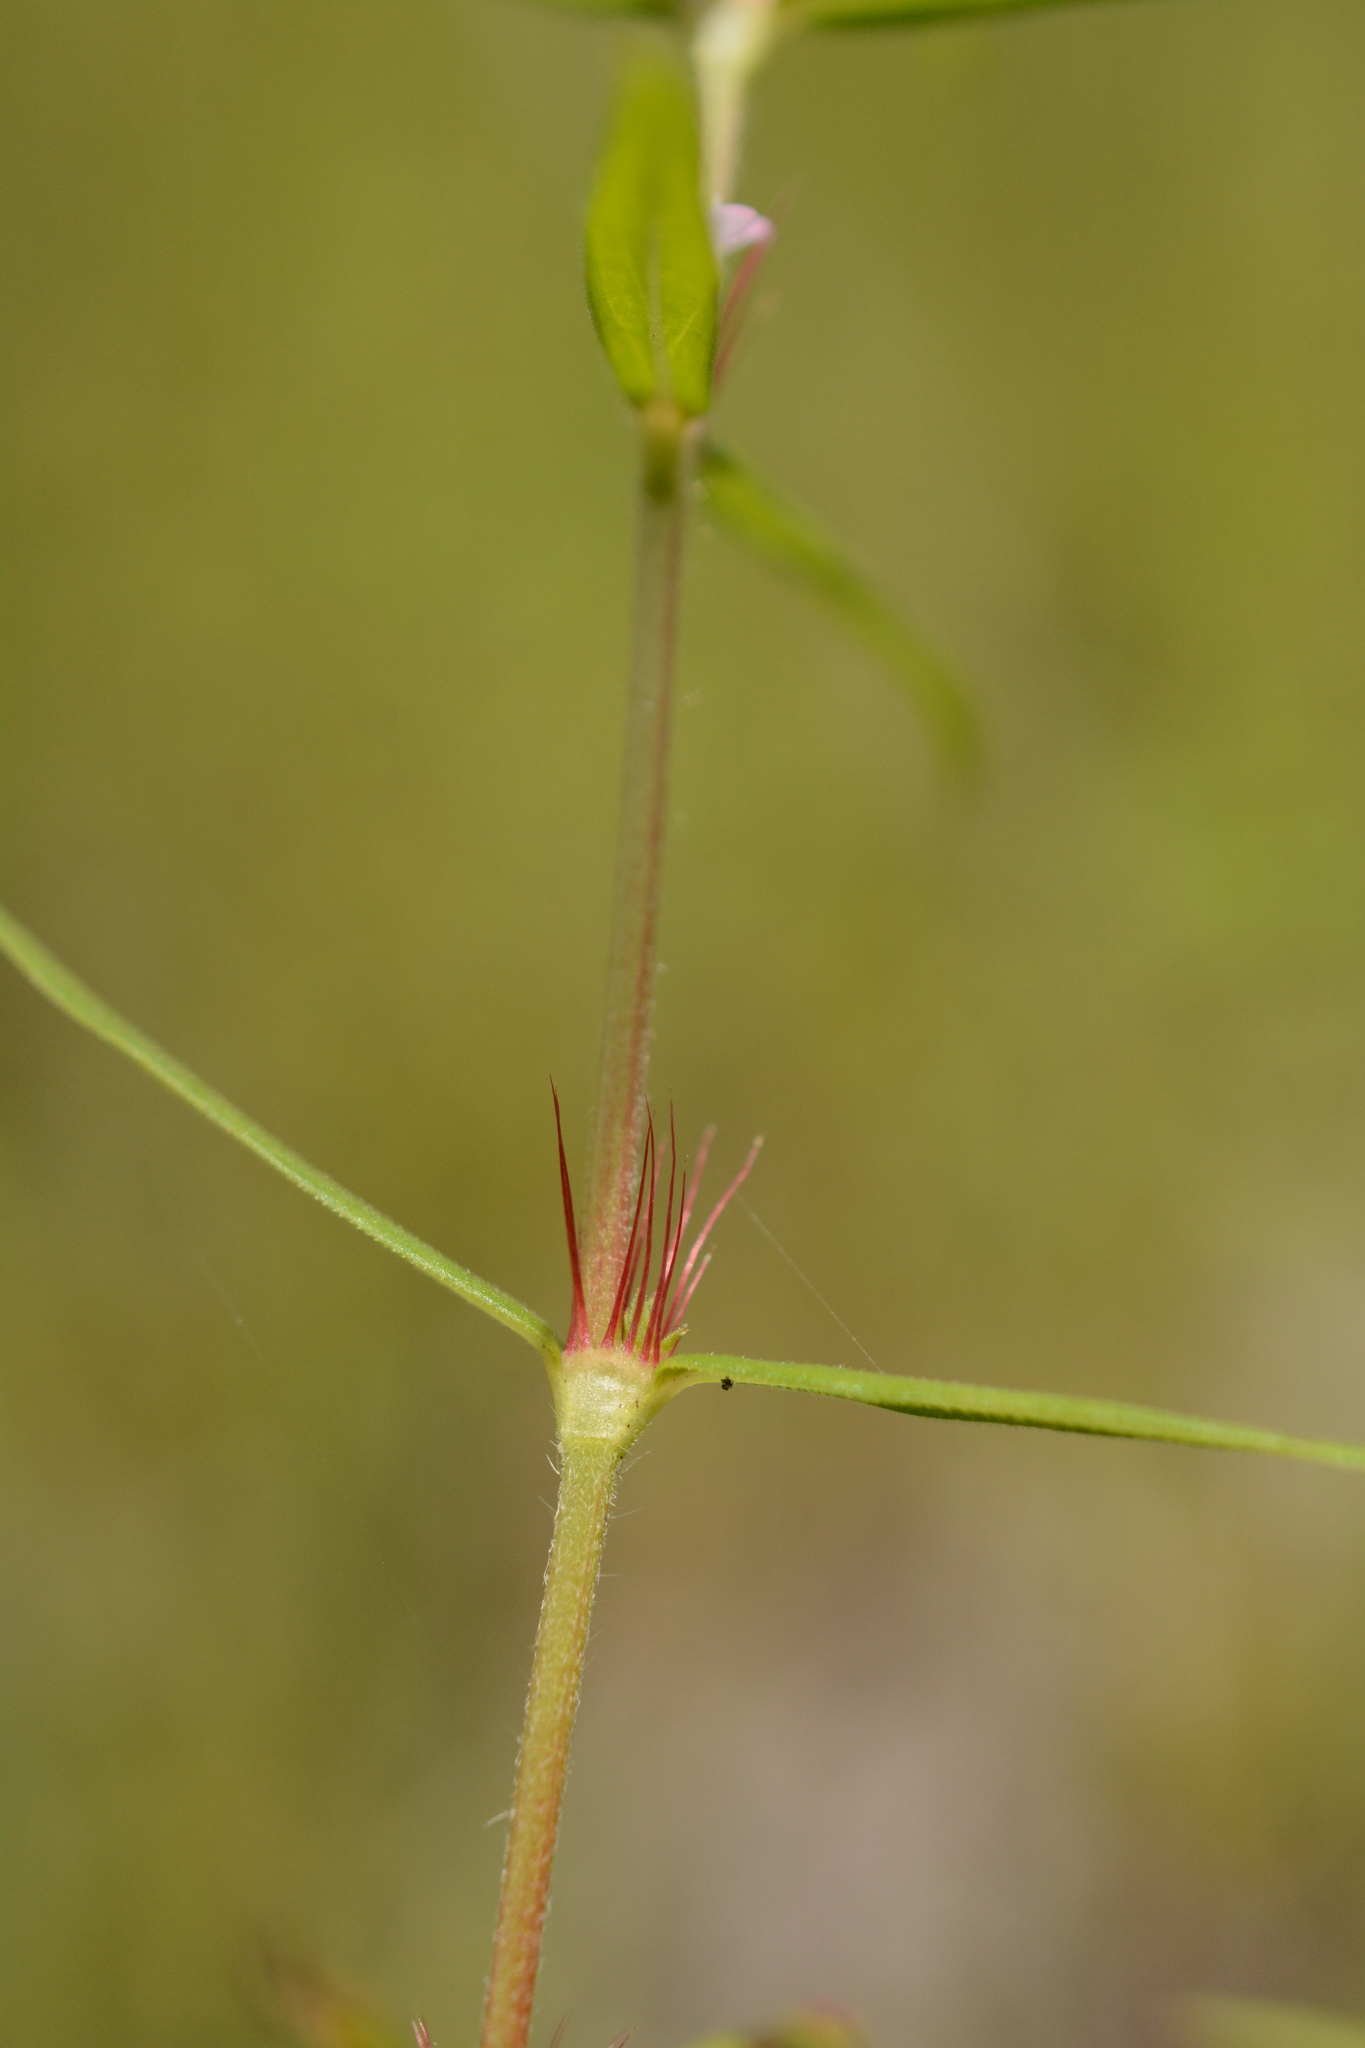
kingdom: Plantae
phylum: Tracheophyta
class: Magnoliopsida
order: Gentianales
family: Rubiaceae
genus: Hexasepalum
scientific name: Hexasepalum teres
